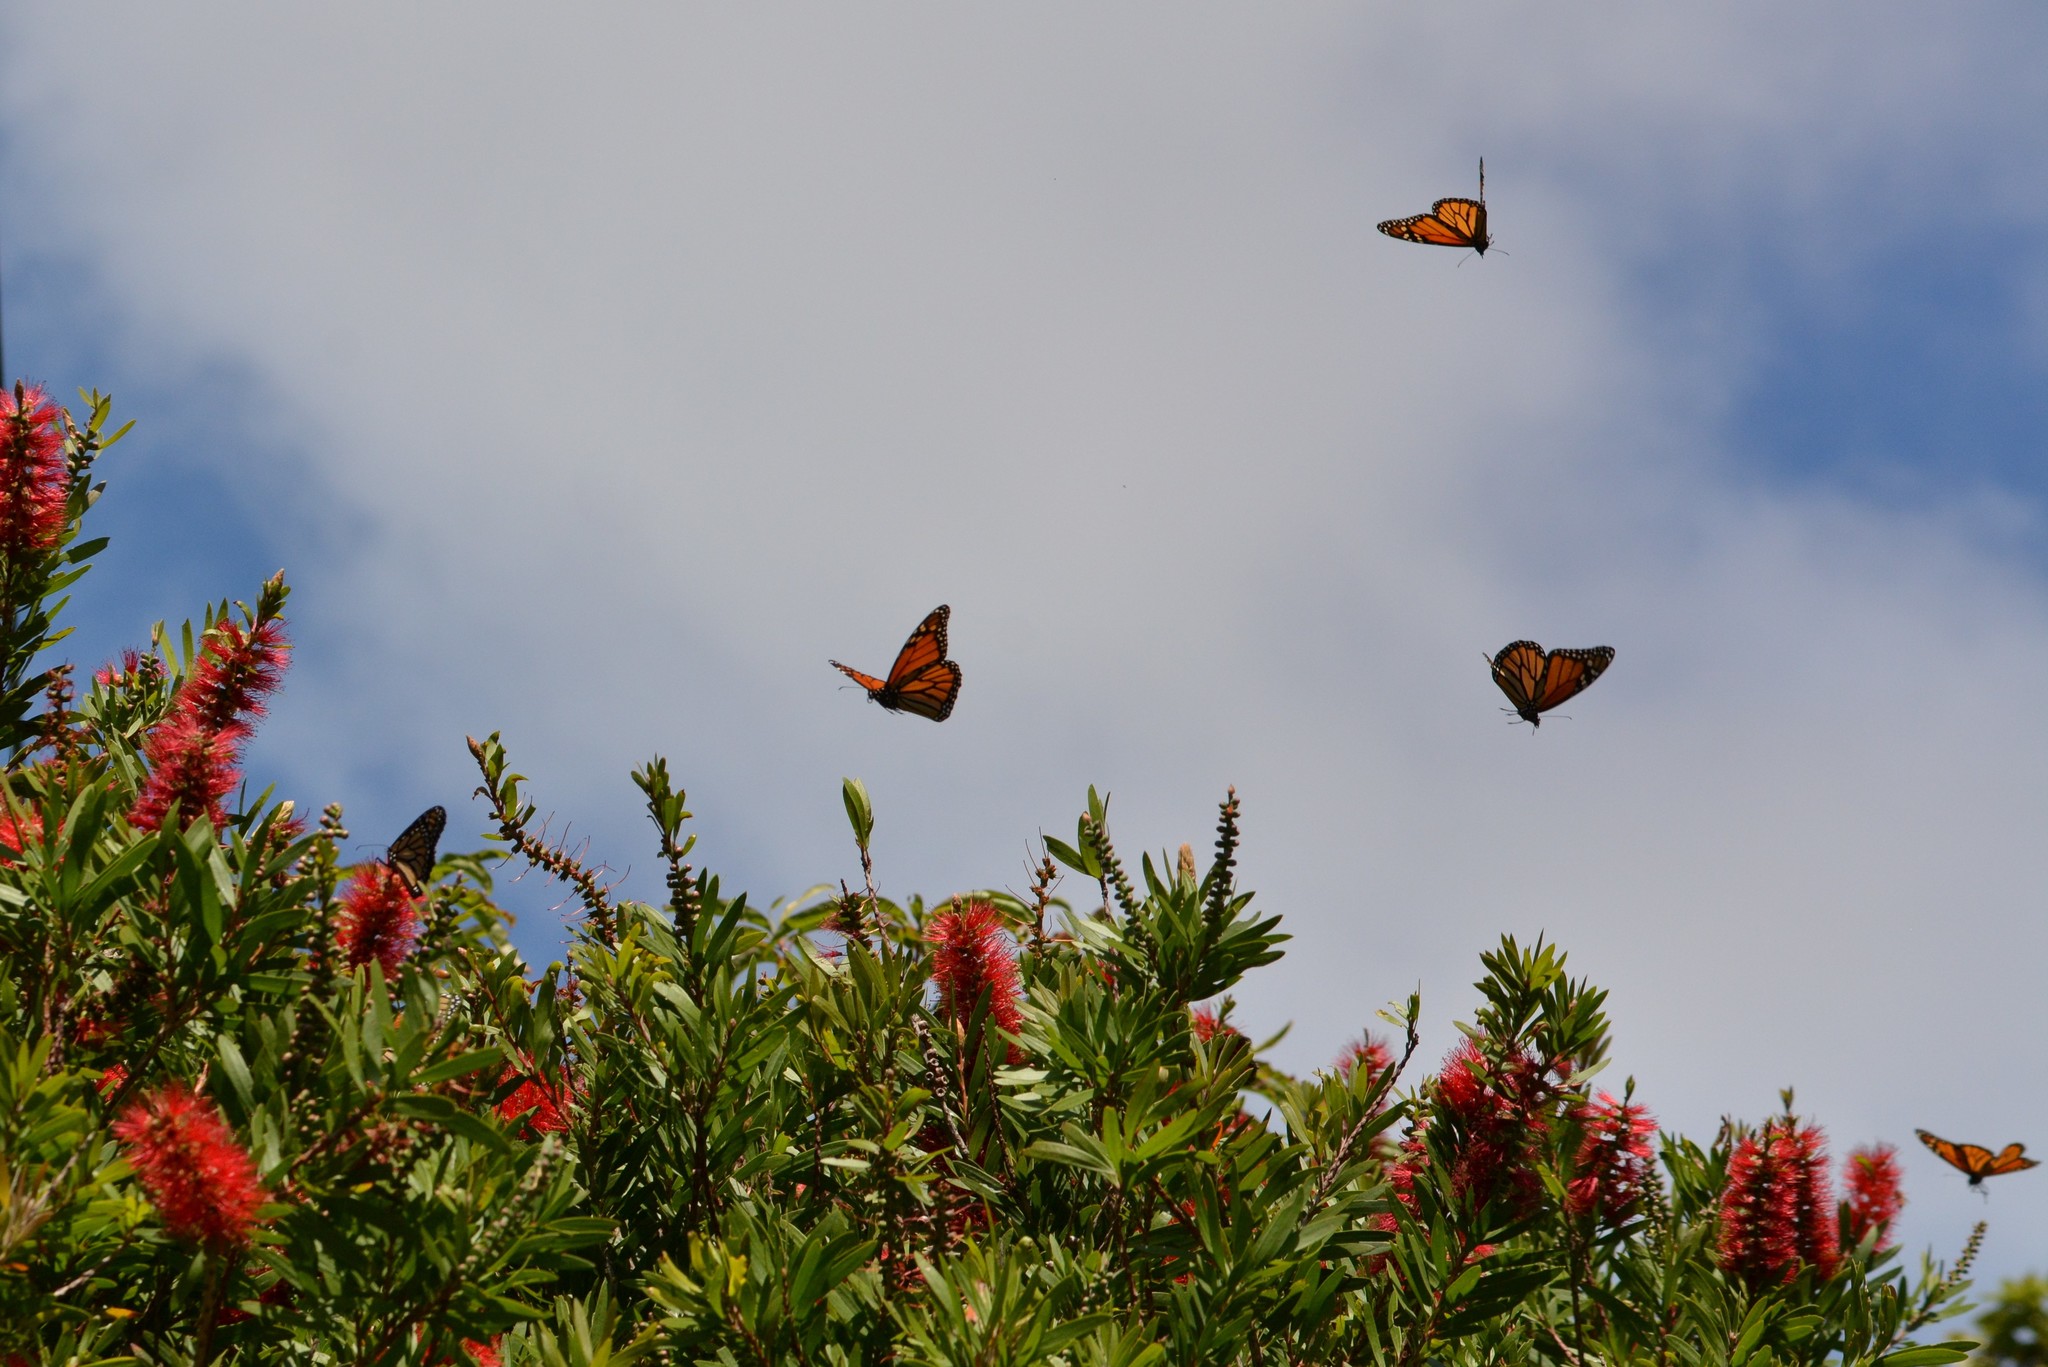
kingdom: Animalia
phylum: Arthropoda
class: Insecta
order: Lepidoptera
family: Nymphalidae
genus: Danaus
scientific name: Danaus plexippus
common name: Monarch
